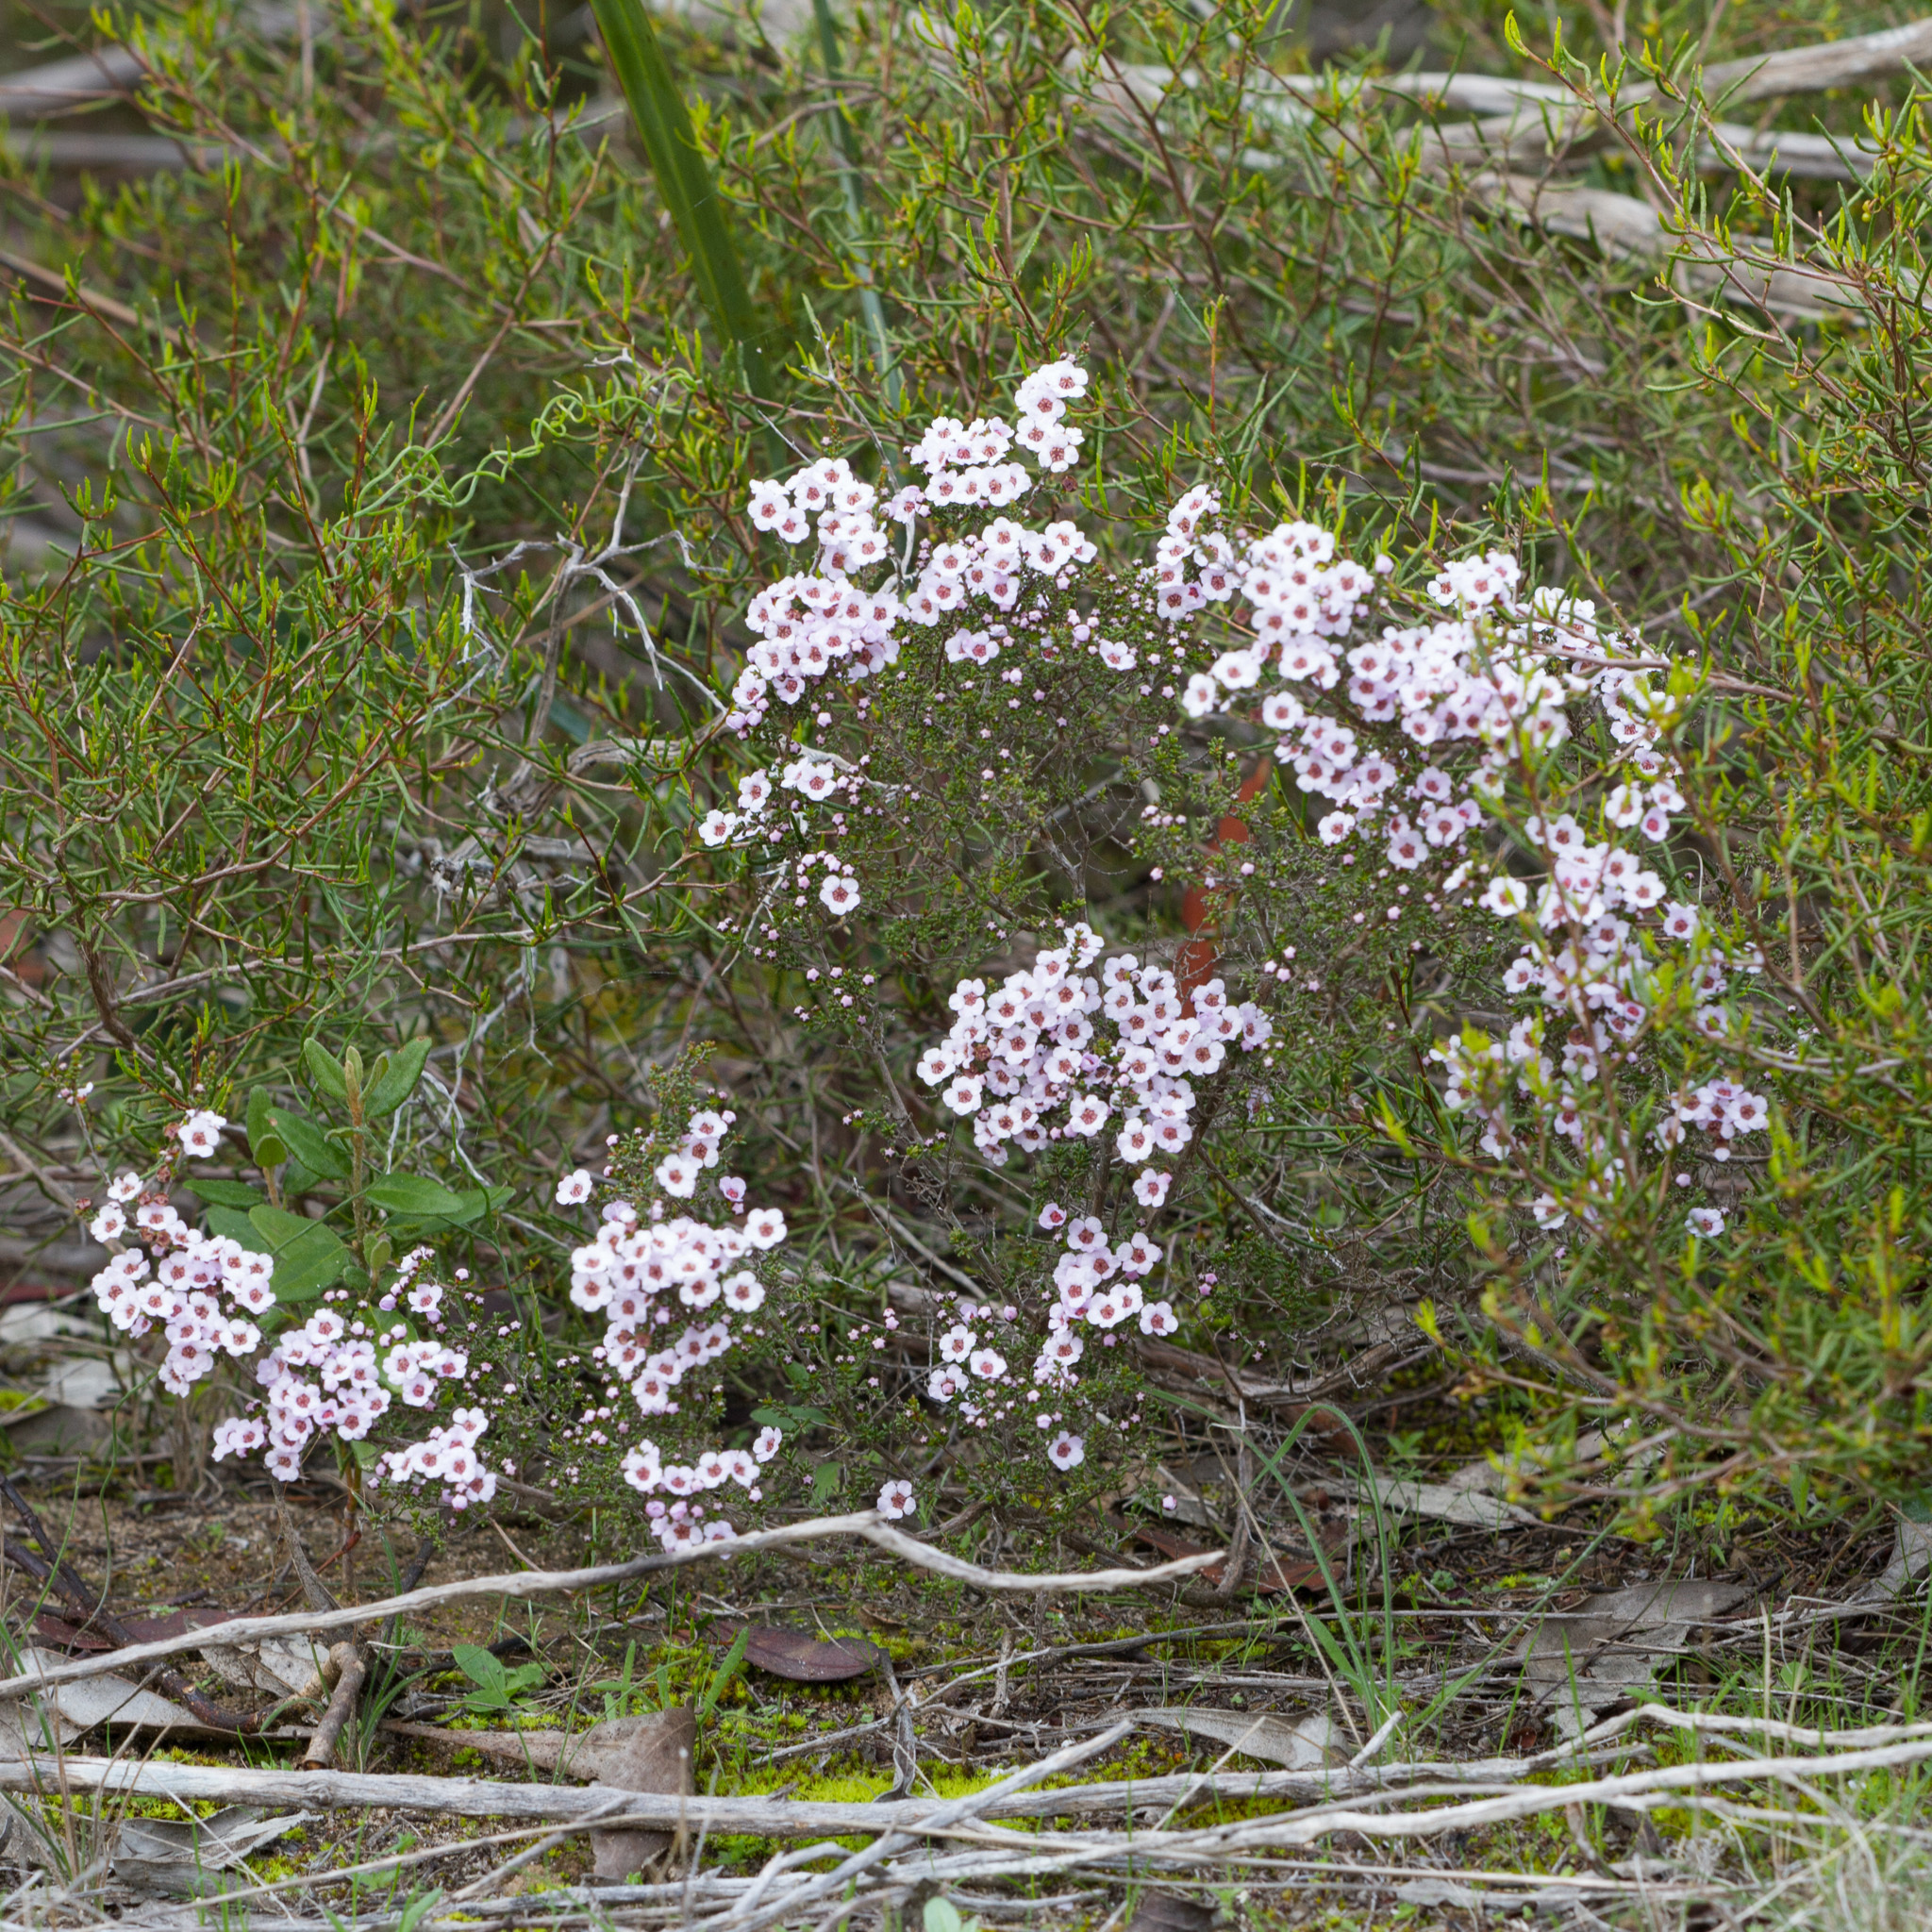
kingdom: Plantae
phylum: Tracheophyta
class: Magnoliopsida
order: Myrtales
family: Myrtaceae
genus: Rinzia
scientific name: Rinzia orientalis
